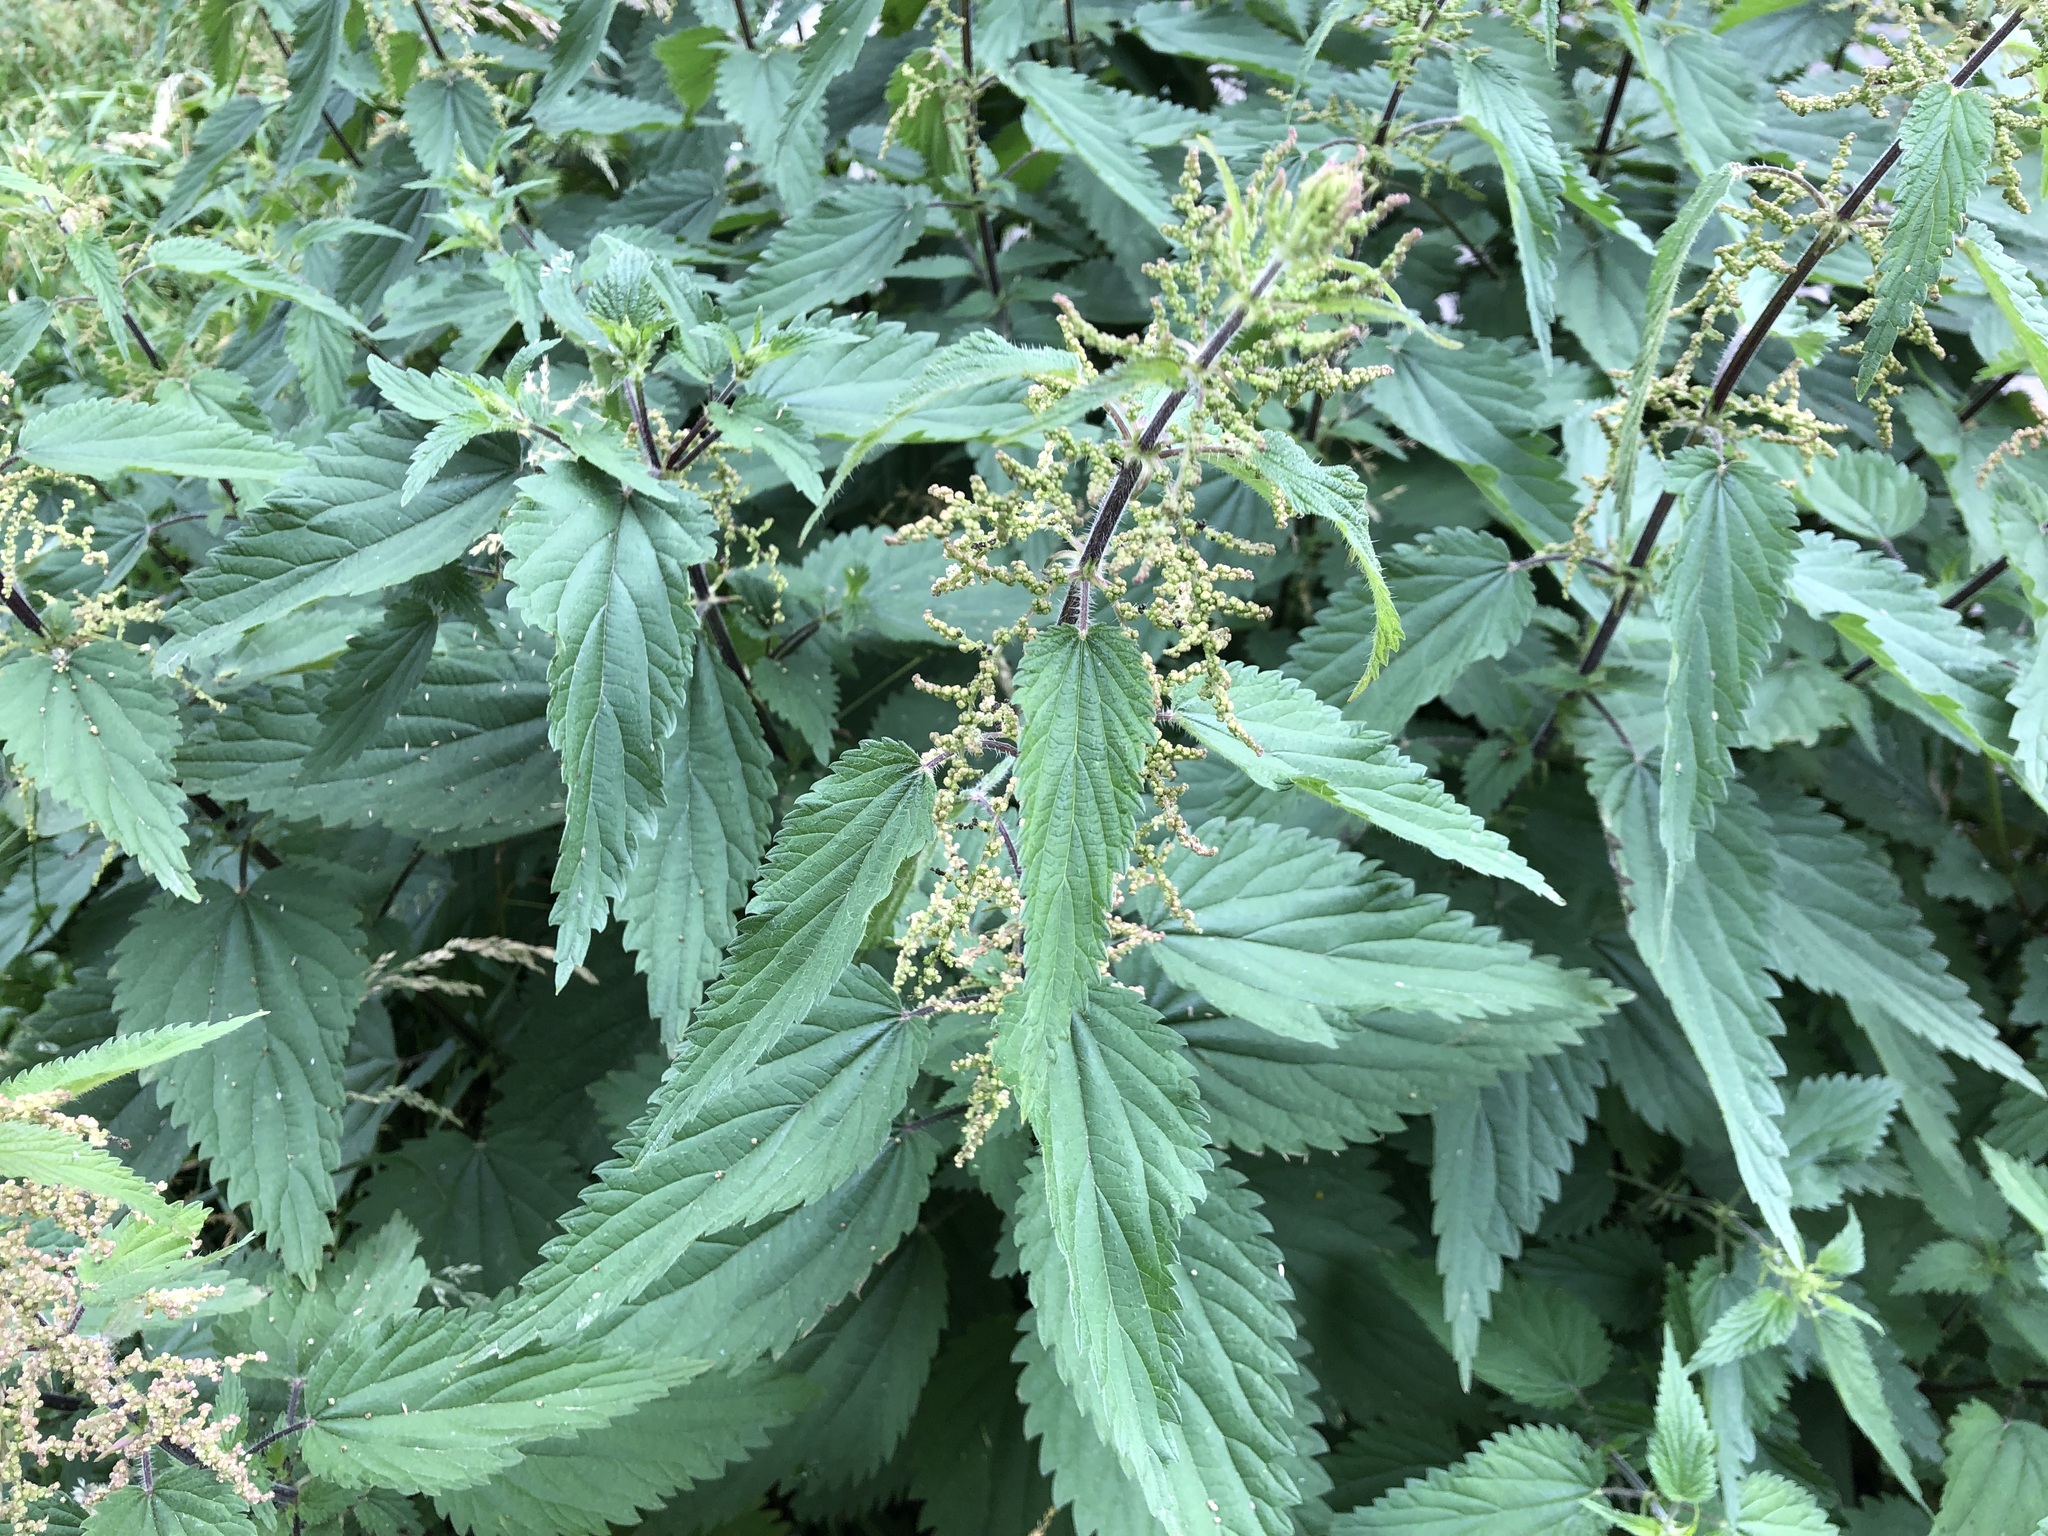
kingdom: Plantae
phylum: Tracheophyta
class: Magnoliopsida
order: Rosales
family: Urticaceae
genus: Urtica
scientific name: Urtica dioica
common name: Common nettle
